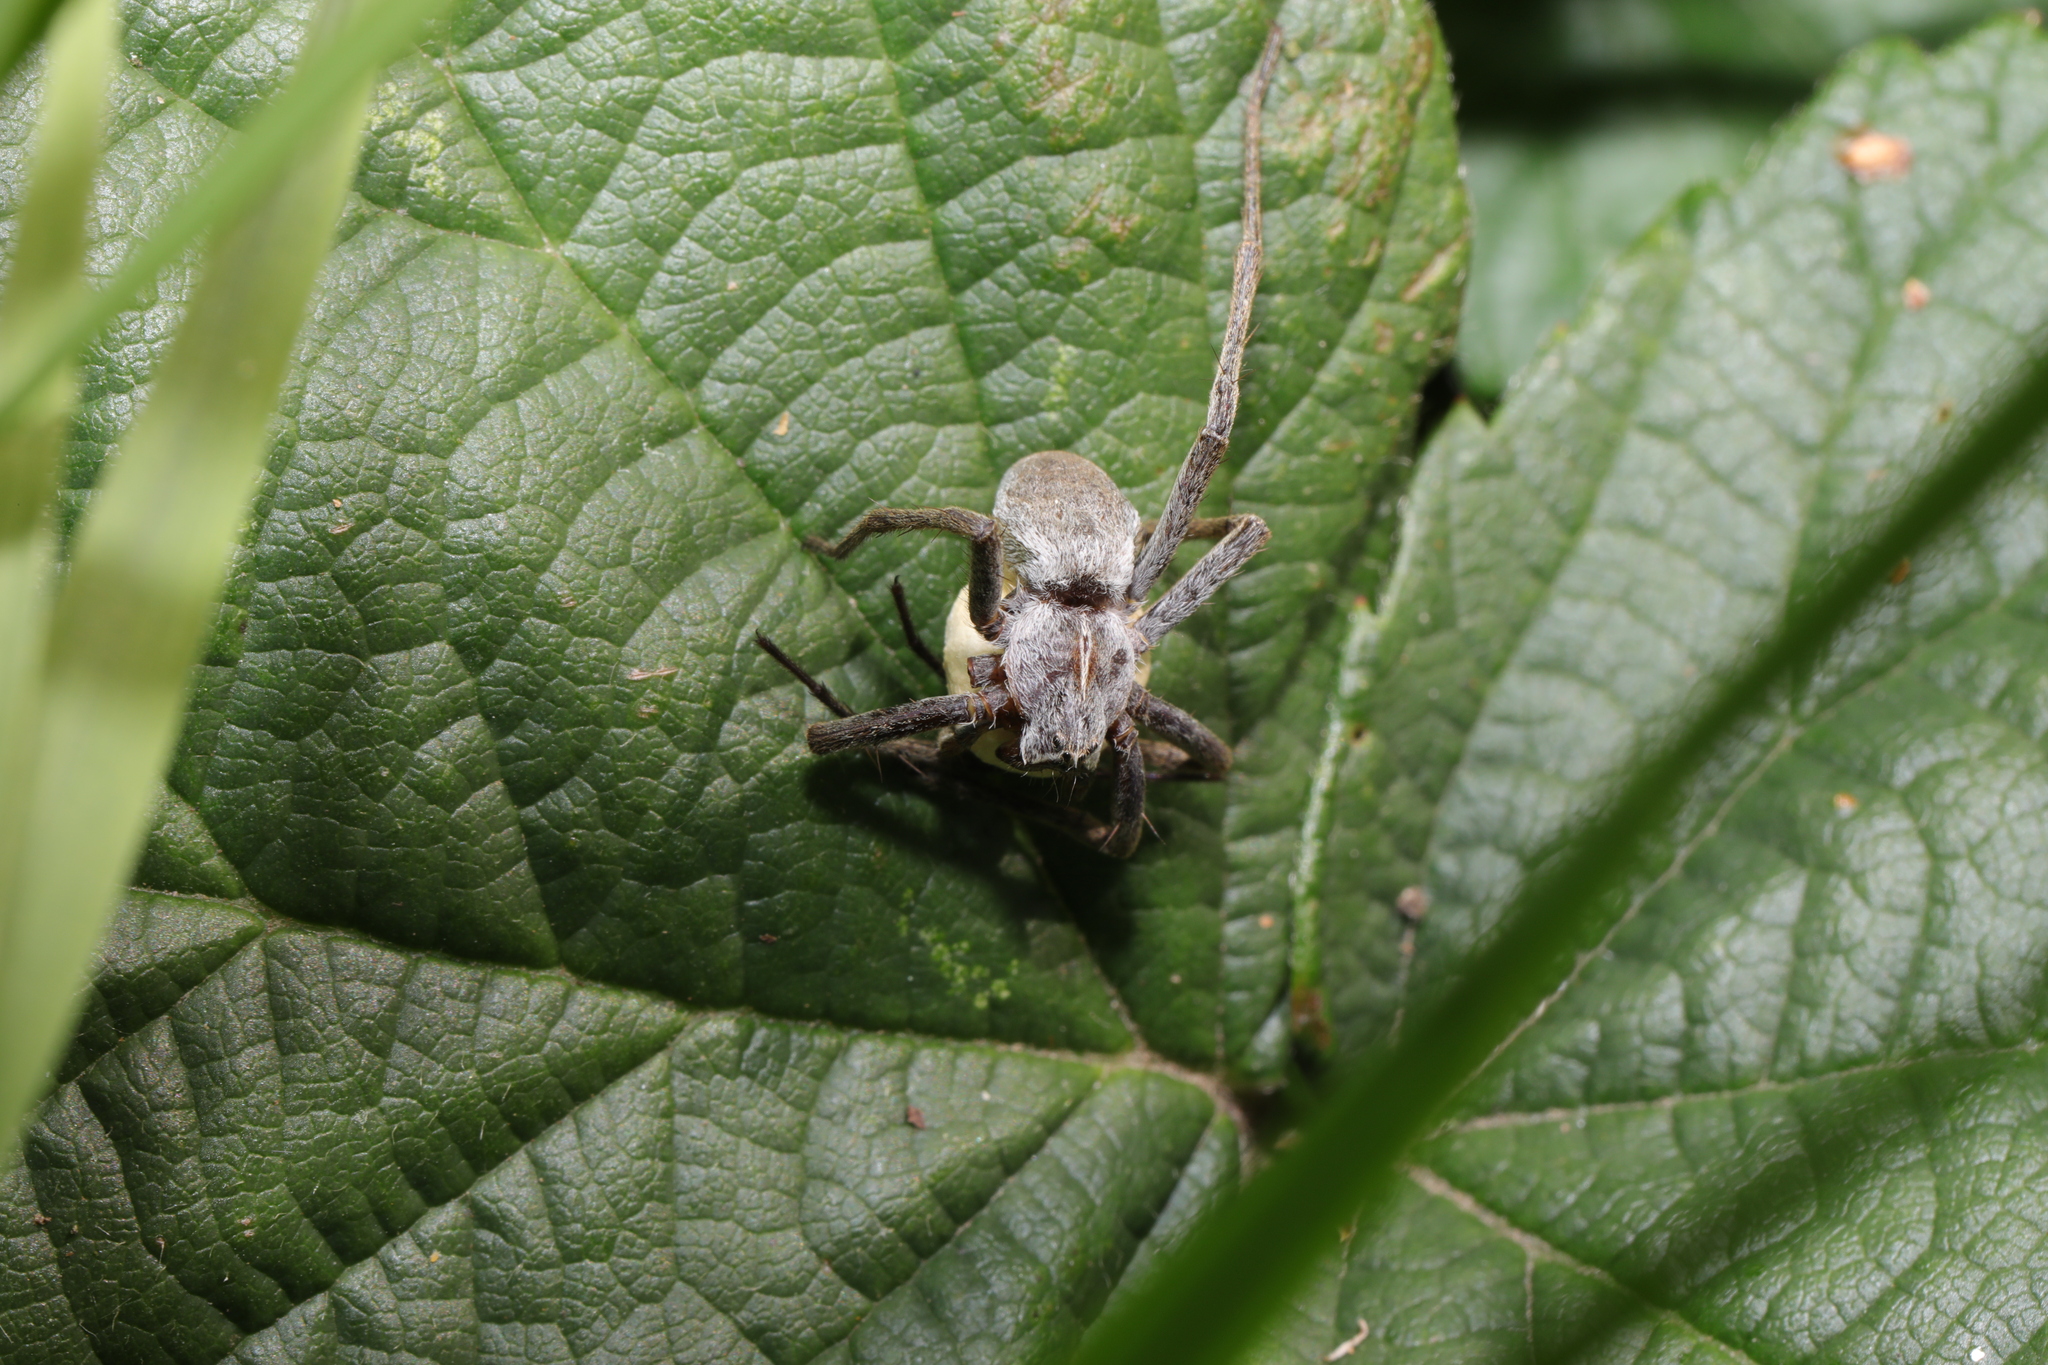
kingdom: Animalia
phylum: Arthropoda
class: Arachnida
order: Araneae
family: Pisauridae
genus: Pisaura
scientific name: Pisaura mirabilis
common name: Tent spider
